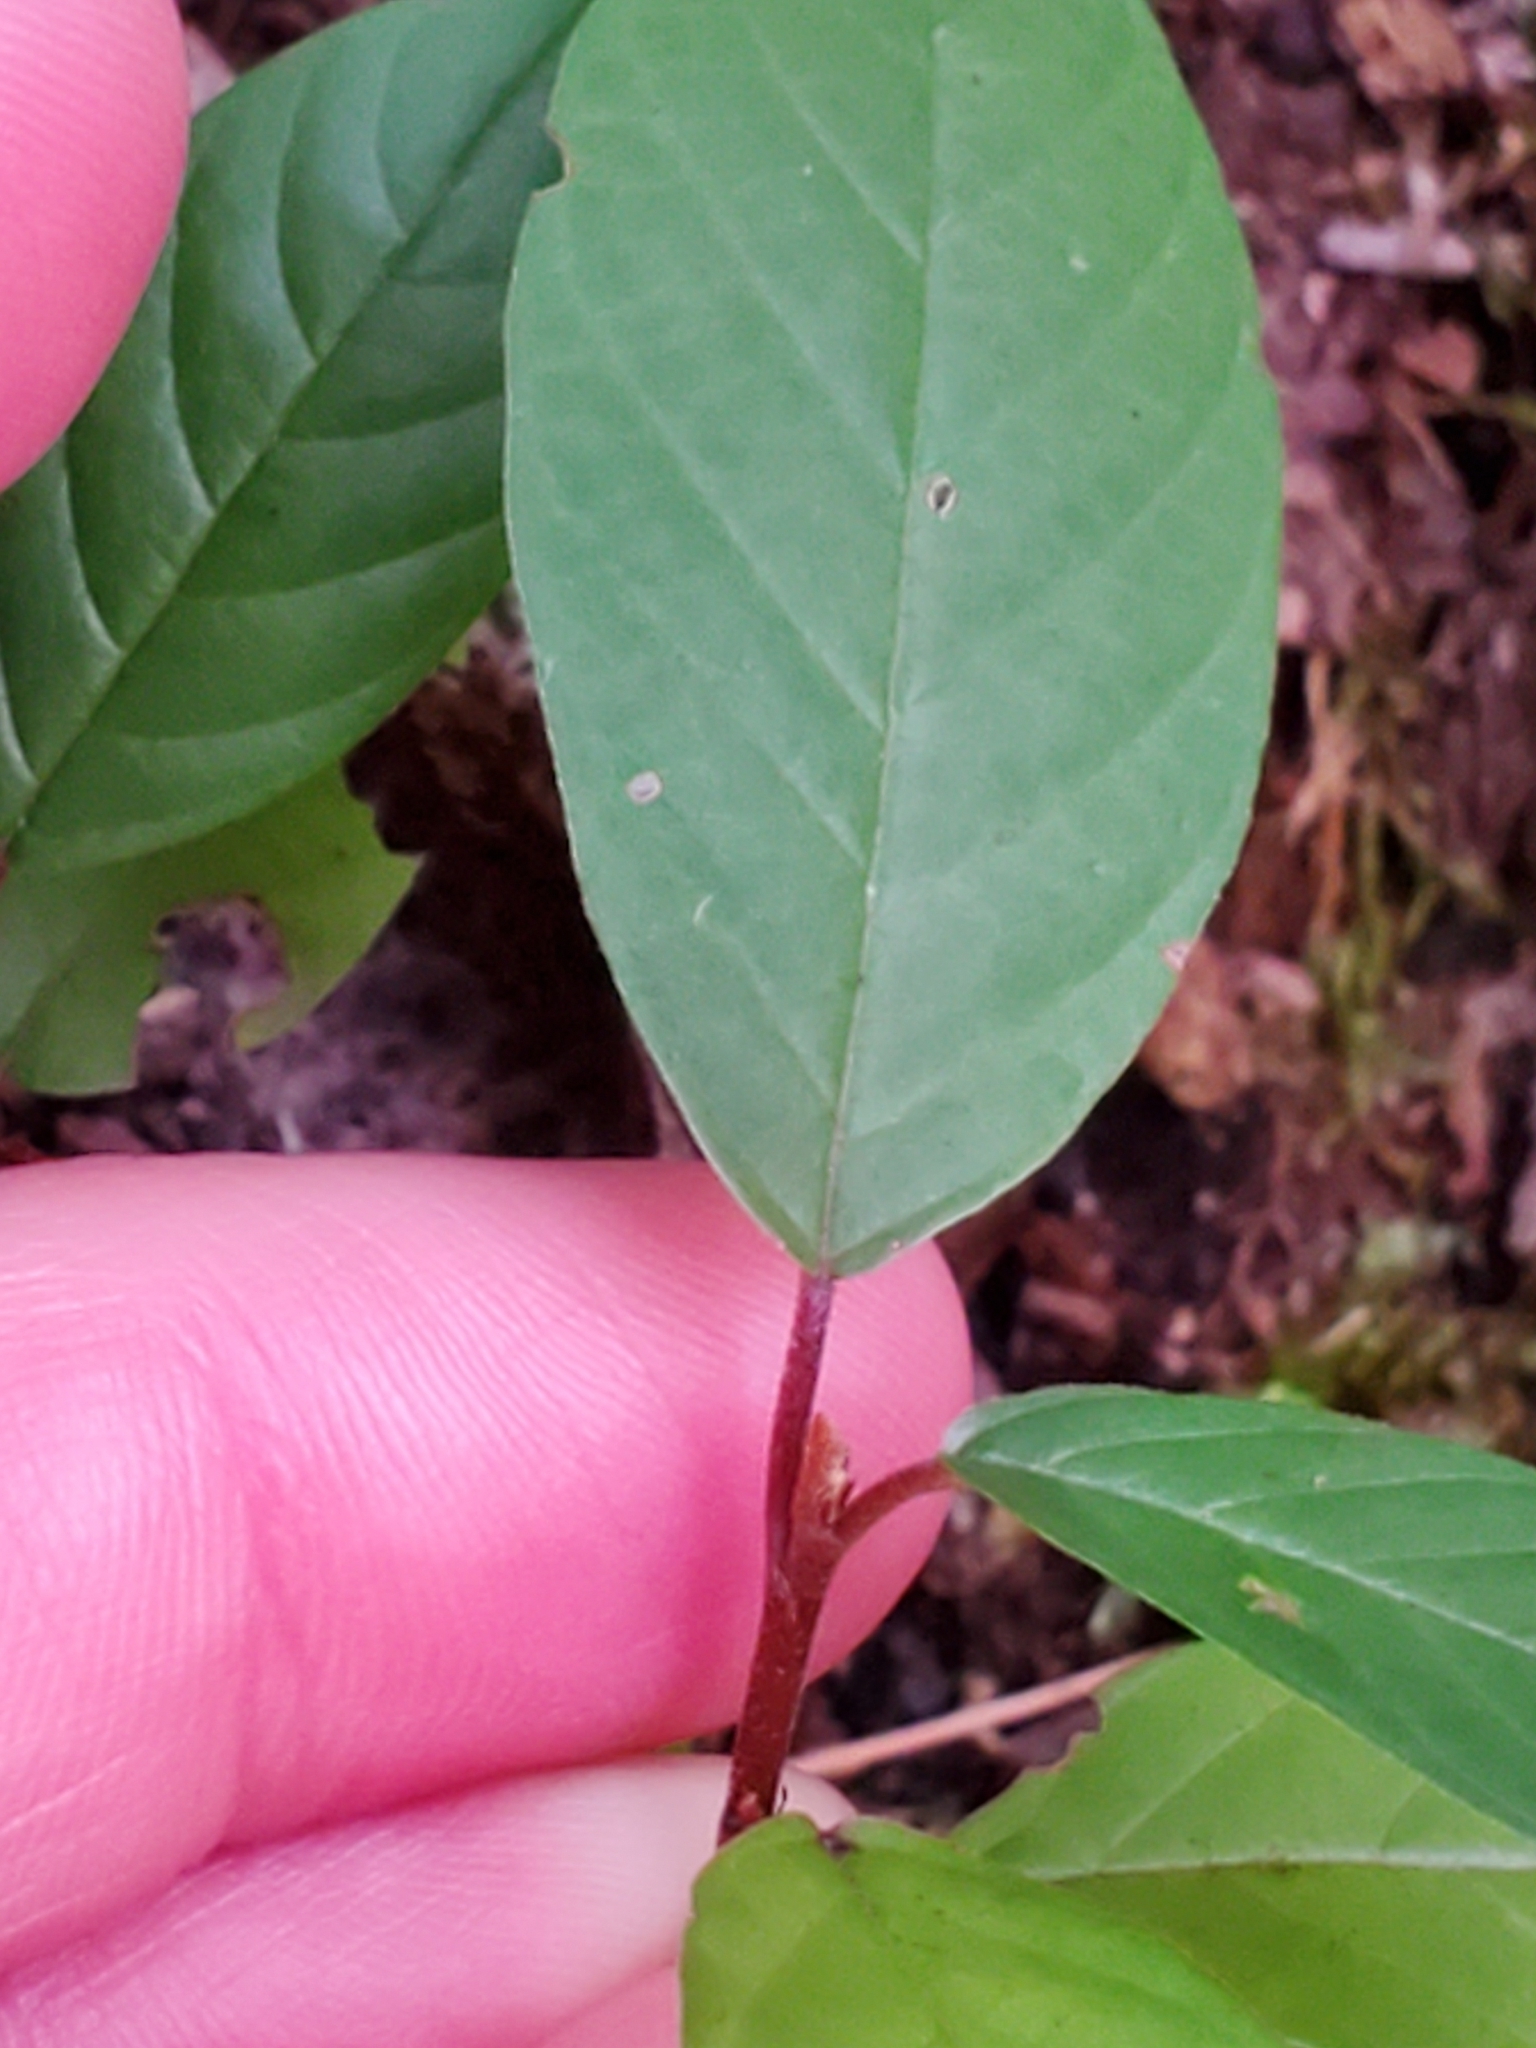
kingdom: Plantae
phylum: Tracheophyta
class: Magnoliopsida
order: Rosales
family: Rhamnaceae
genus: Frangula
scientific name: Frangula alnus
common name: Alder buckthorn
